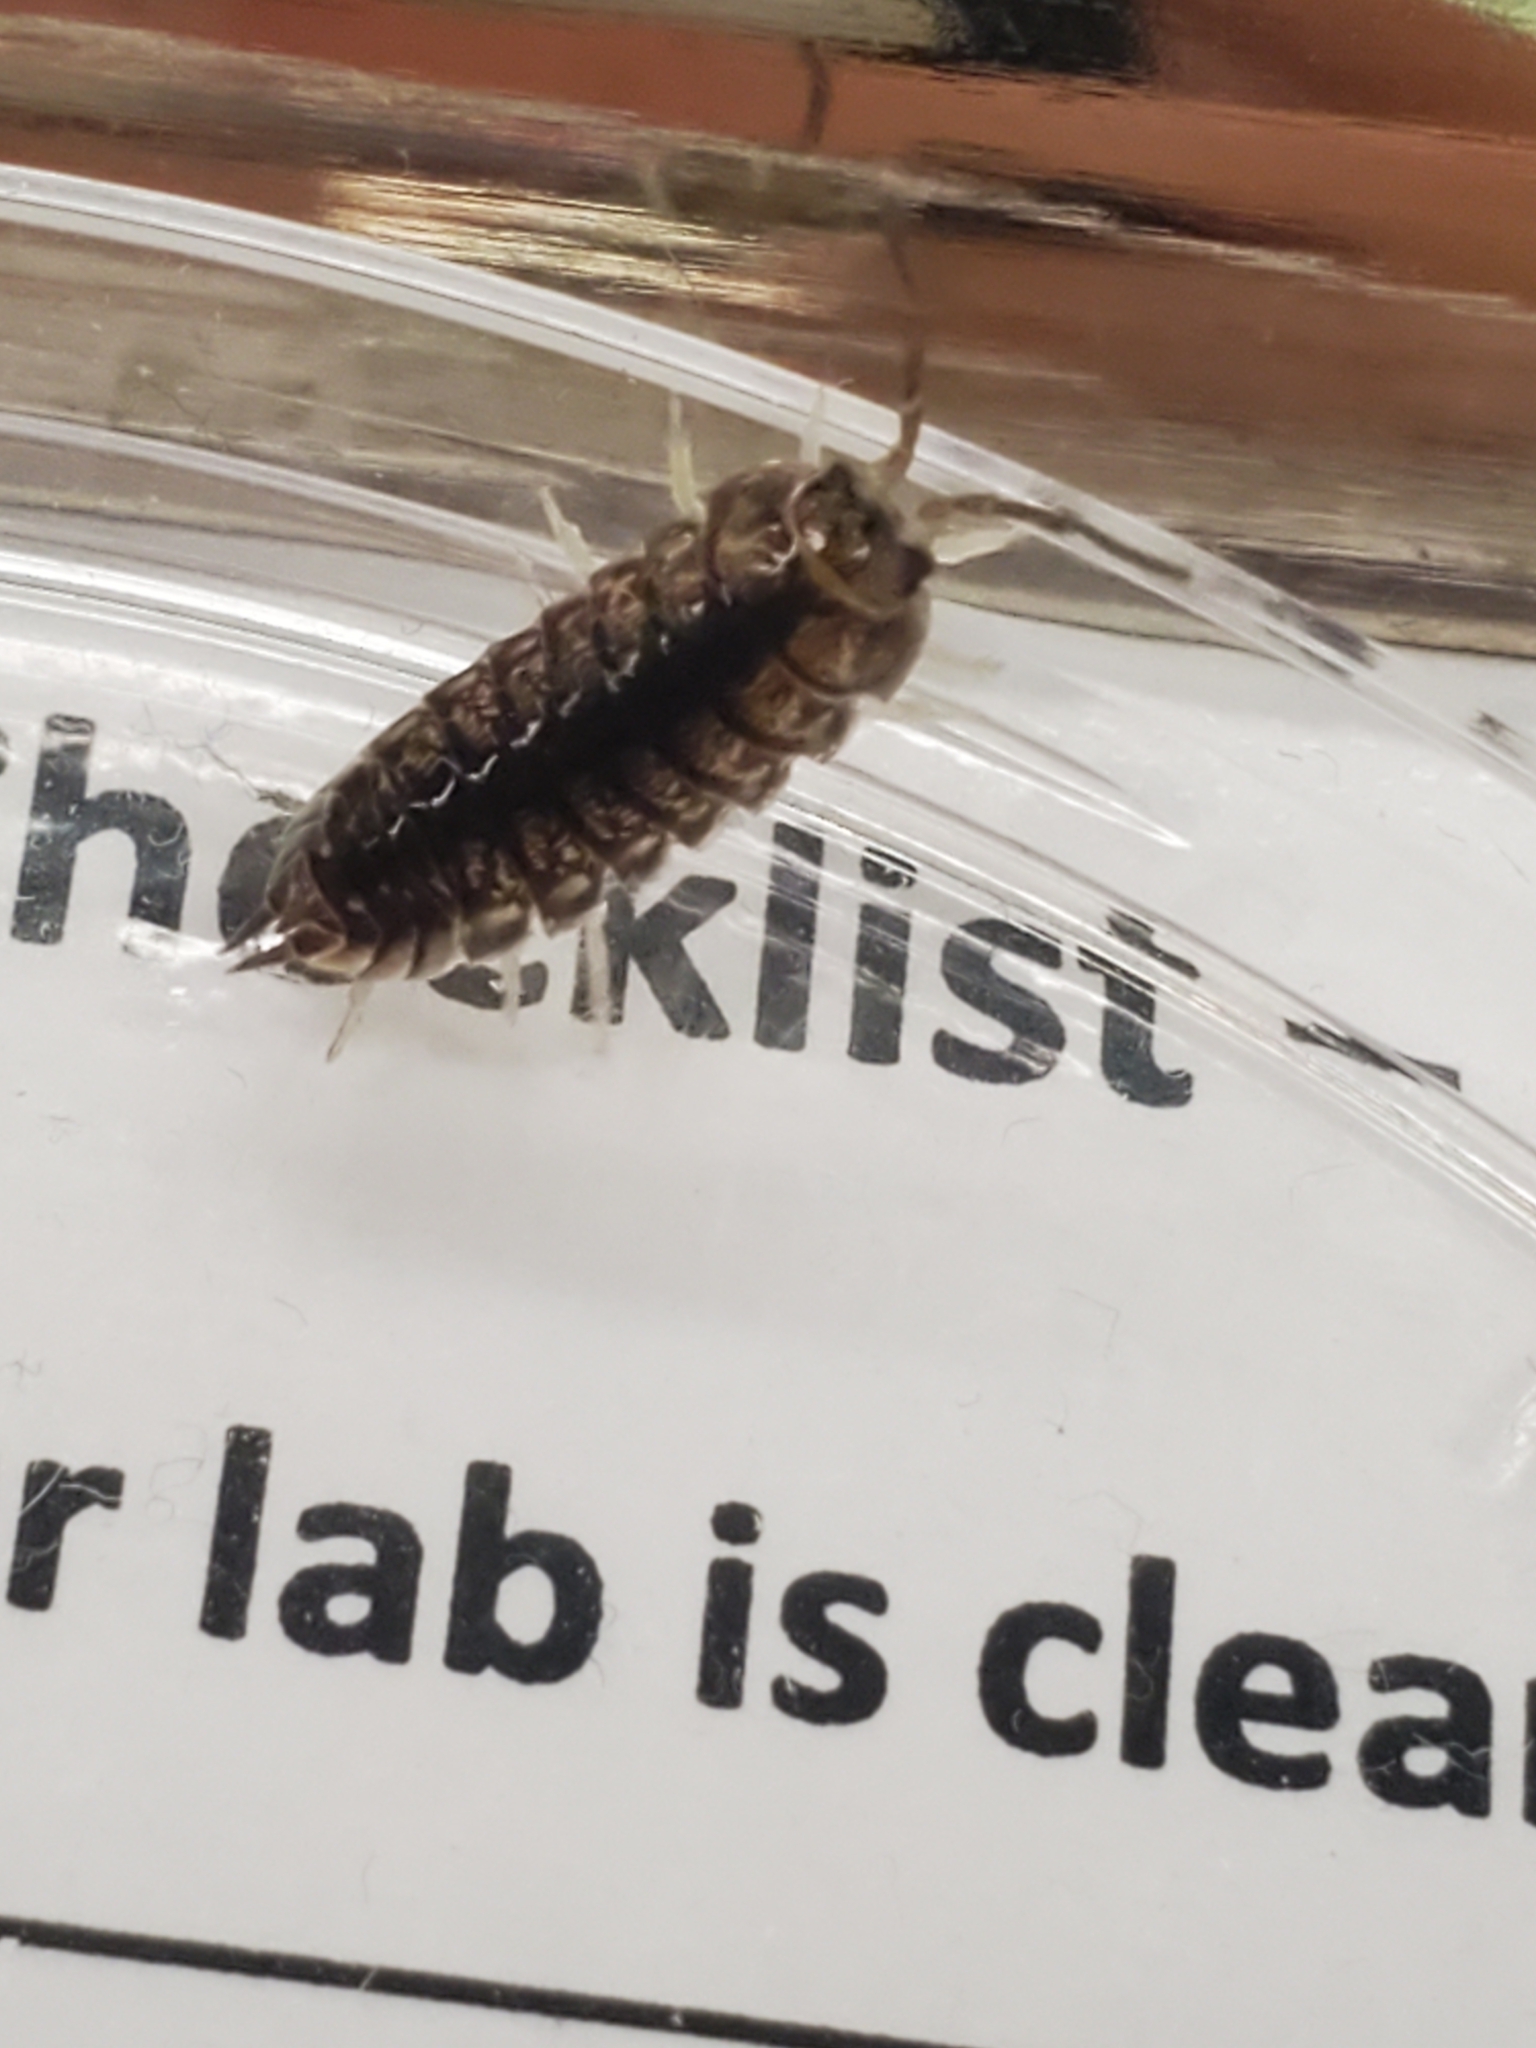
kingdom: Animalia
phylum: Arthropoda
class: Malacostraca
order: Isopoda
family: Cylisticidae
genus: Cylisticus
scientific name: Cylisticus convexus
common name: Curly woodlouse
